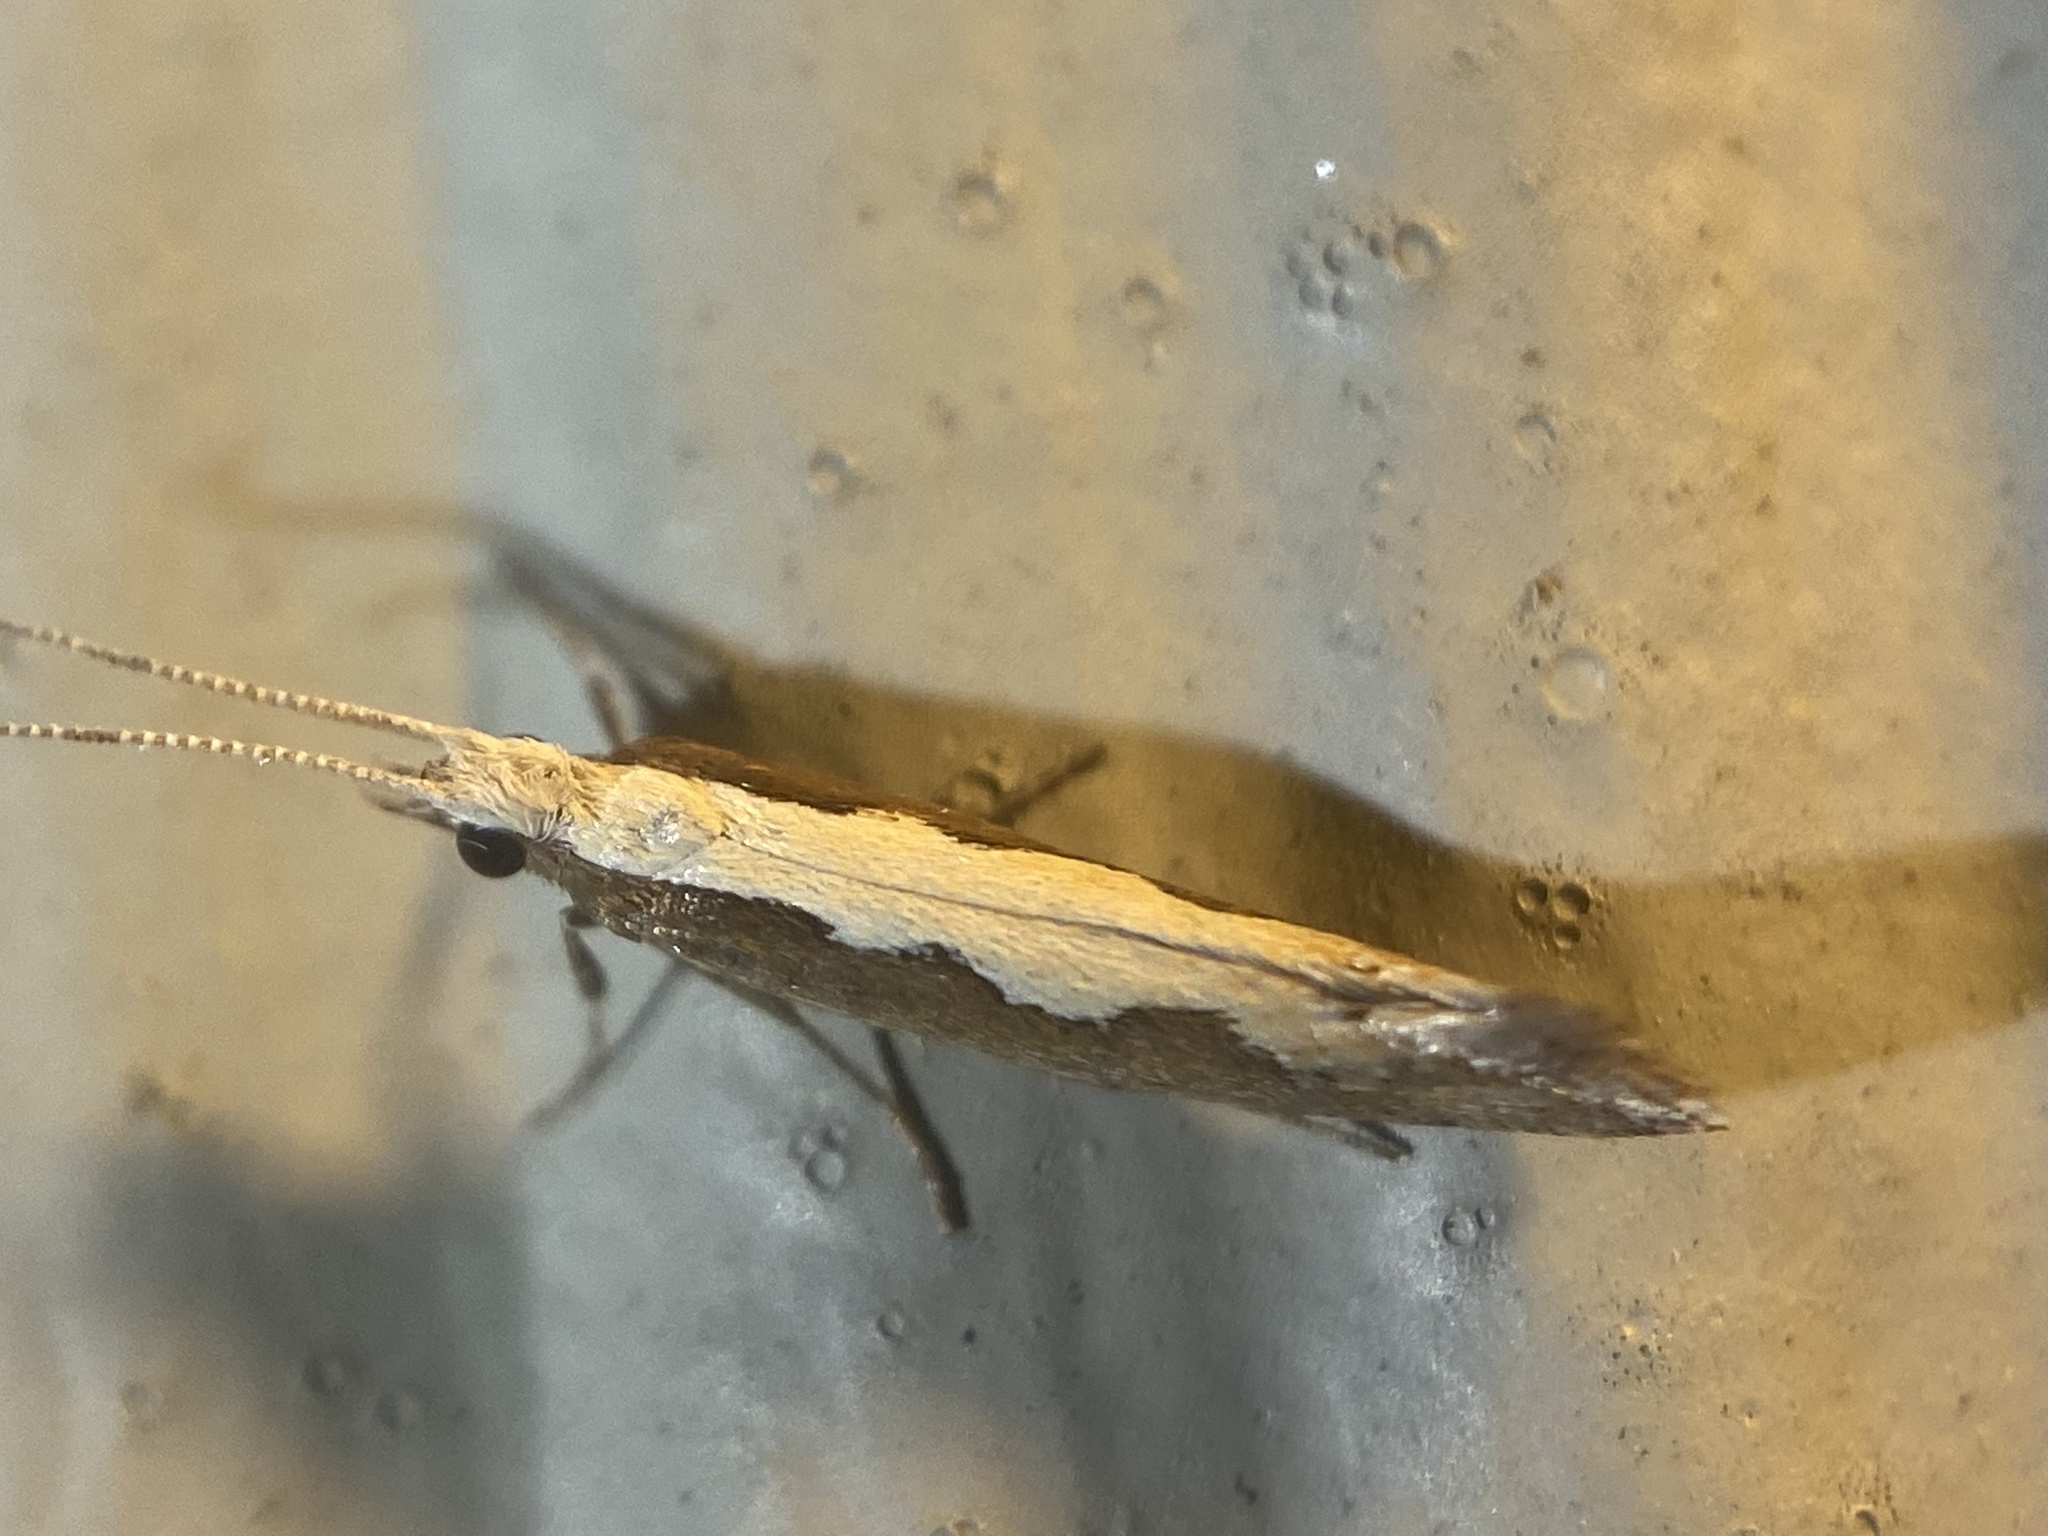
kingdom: Animalia
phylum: Arthropoda
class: Insecta
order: Lepidoptera
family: Plutellidae
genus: Plutella
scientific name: Plutella xylostella
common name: Diamond-back moth
